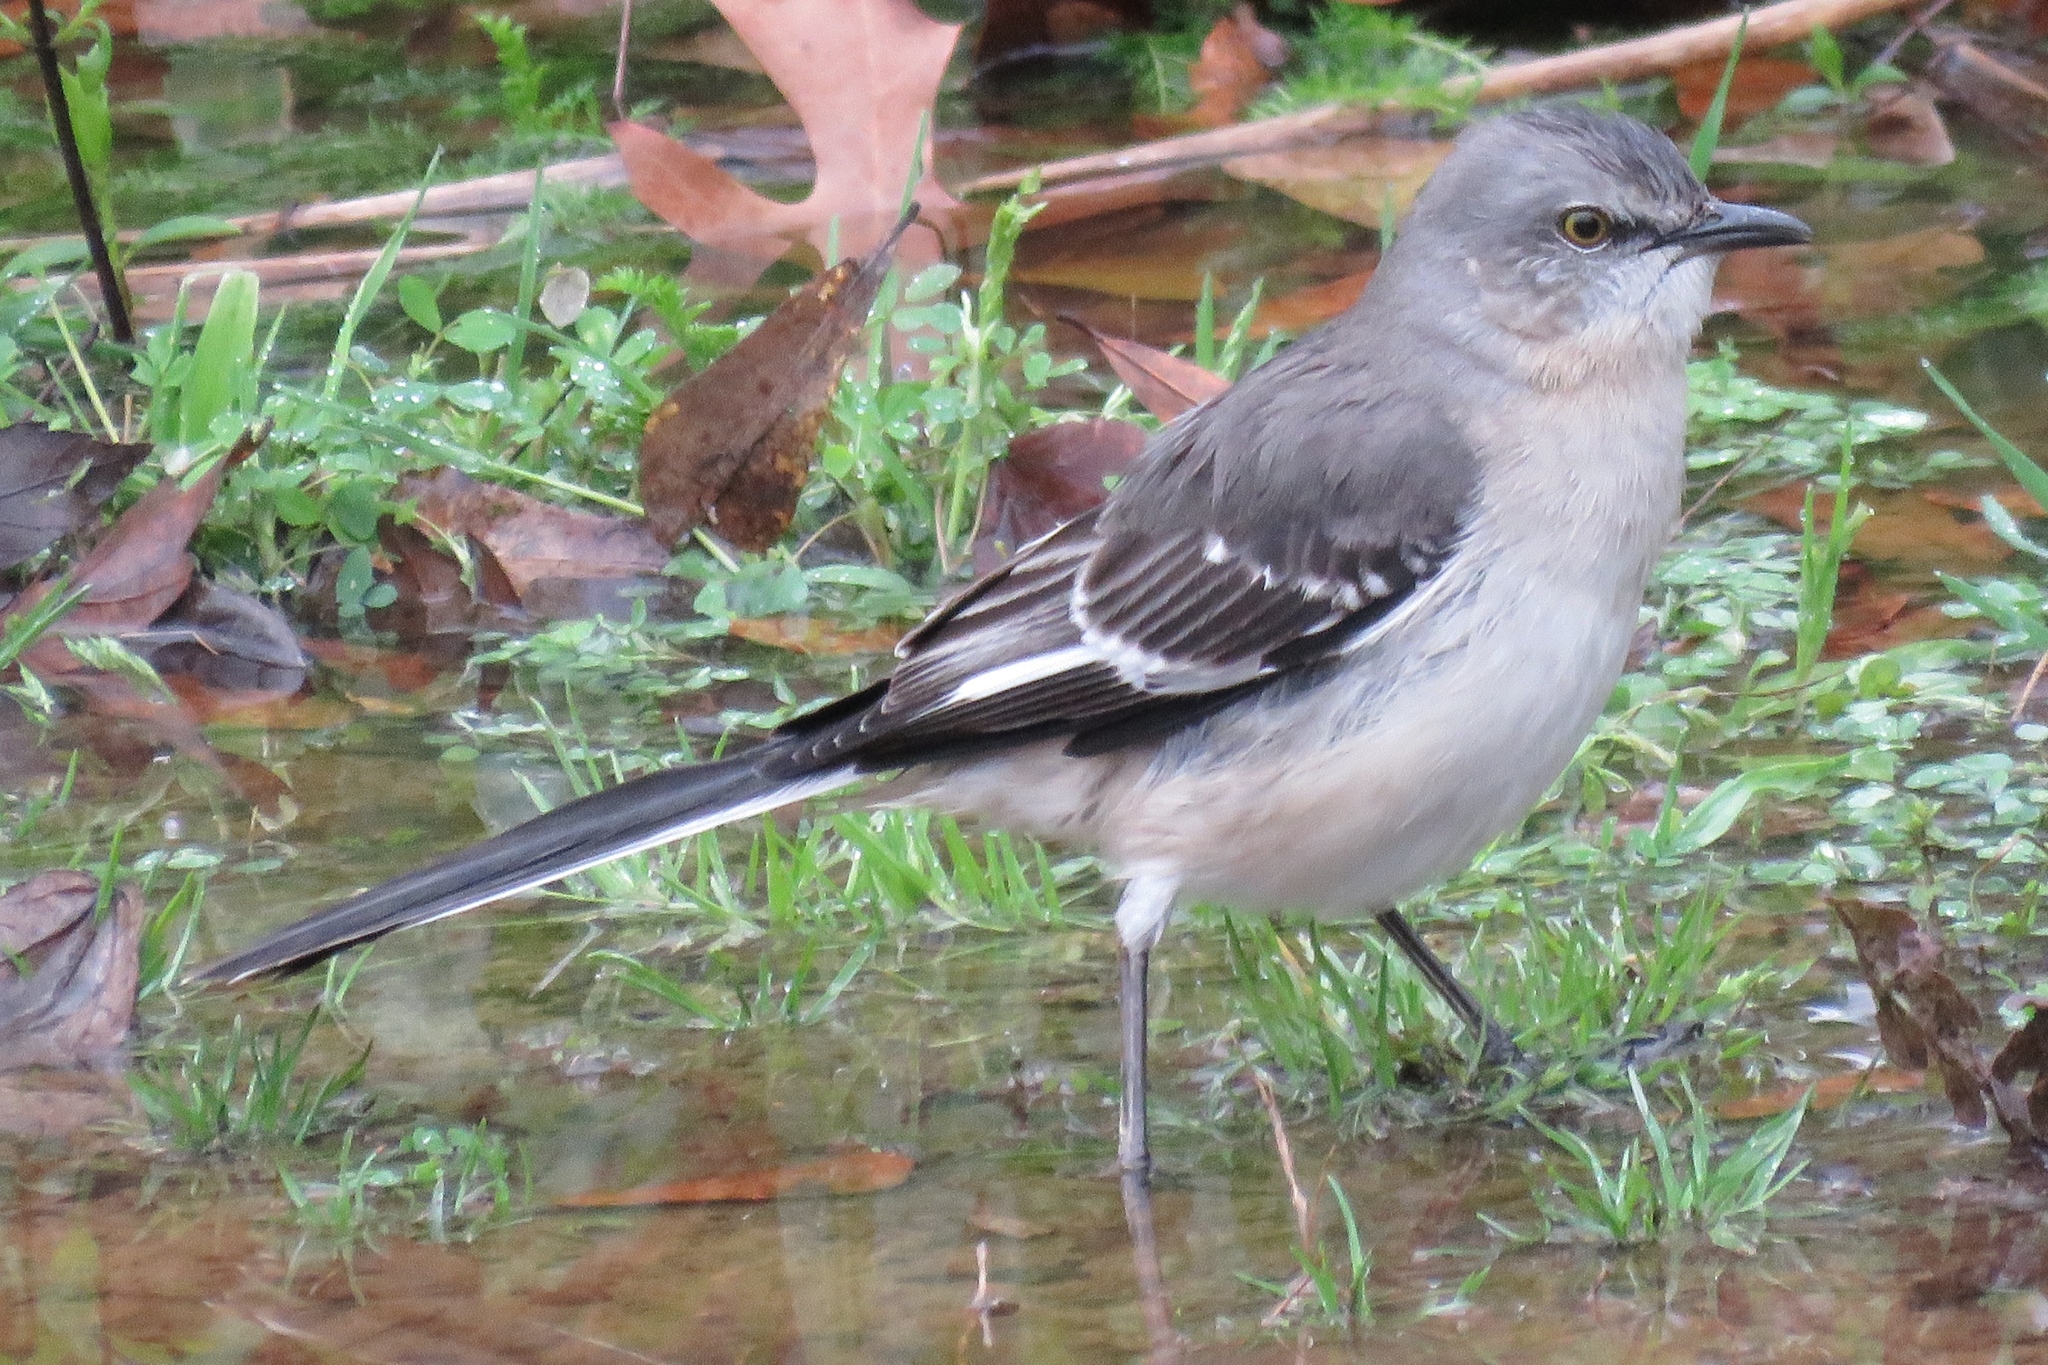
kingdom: Animalia
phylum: Chordata
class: Aves
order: Passeriformes
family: Mimidae
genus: Mimus
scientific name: Mimus polyglottos
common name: Northern mockingbird
